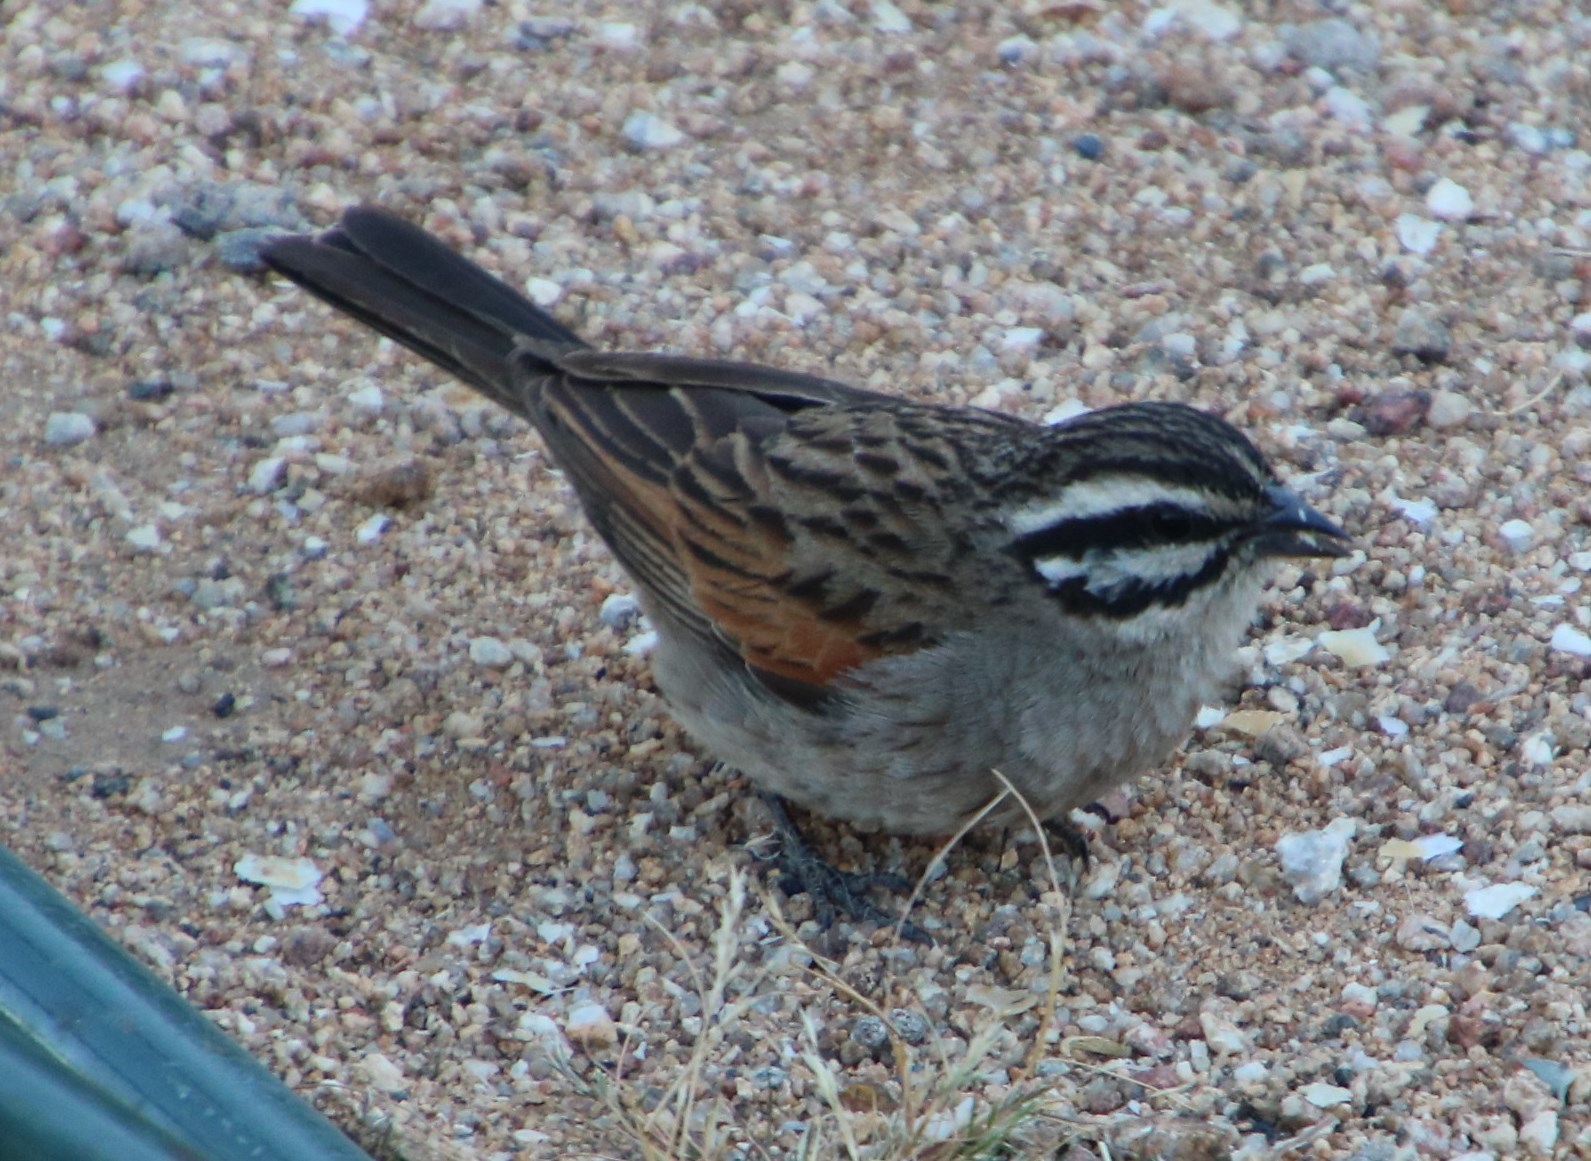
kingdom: Animalia
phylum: Chordata
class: Aves
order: Passeriformes
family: Emberizidae
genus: Emberiza
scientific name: Emberiza capensis
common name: Cape bunting
